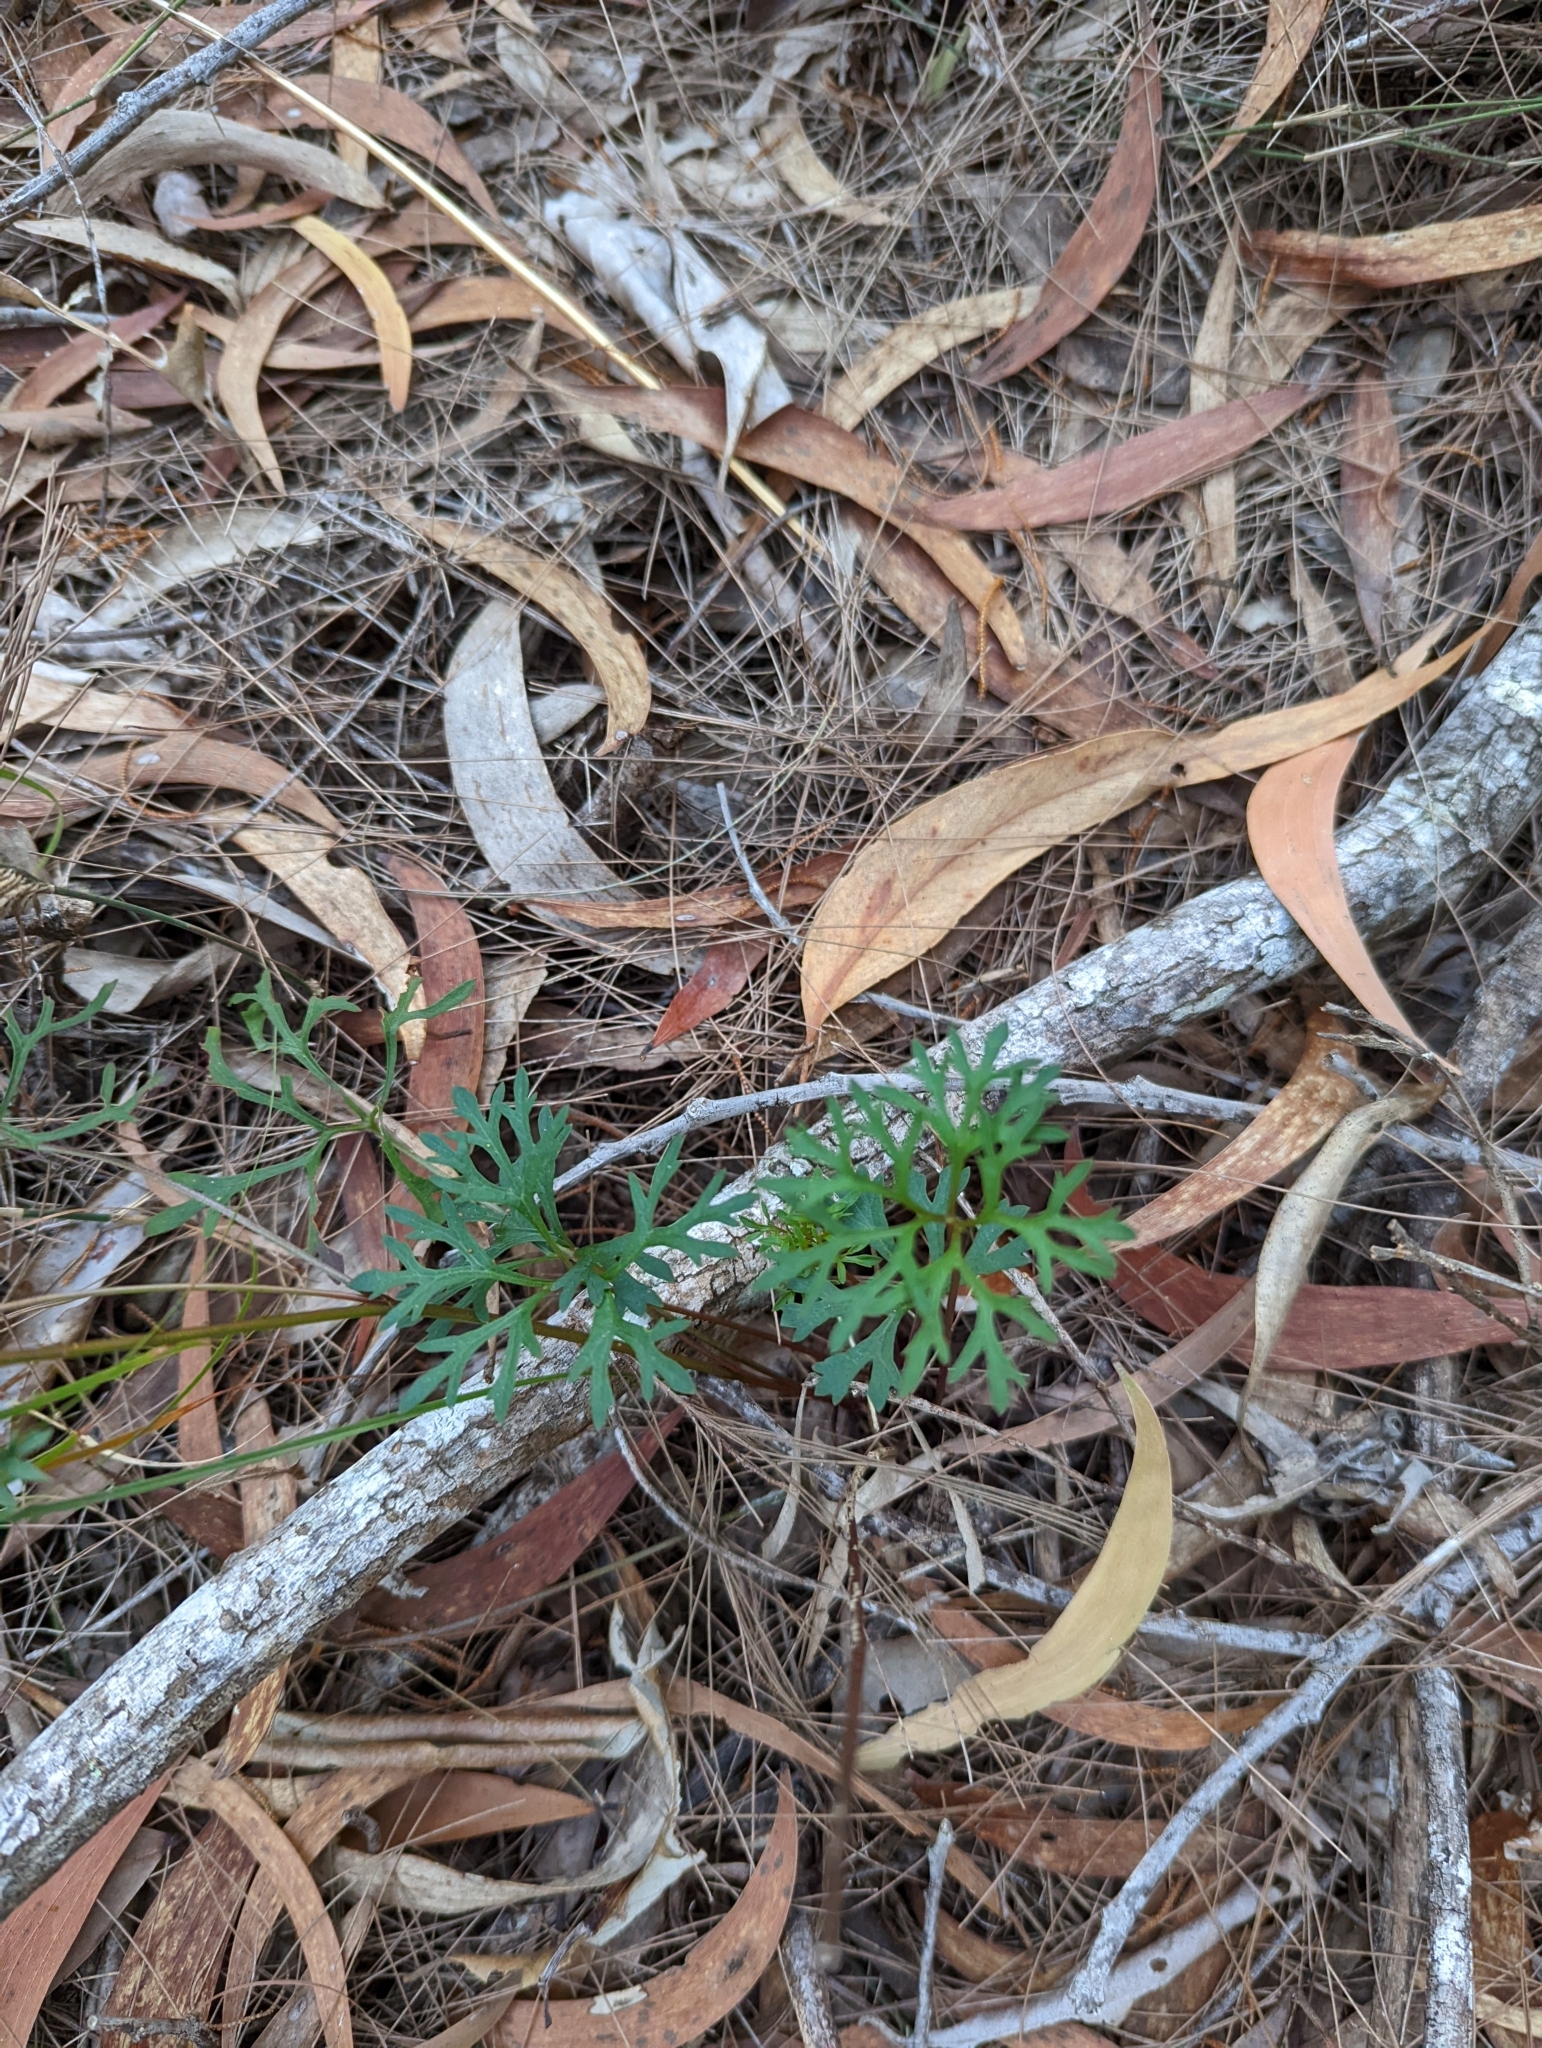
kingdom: Plantae
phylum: Tracheophyta
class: Magnoliopsida
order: Apiales
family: Araliaceae
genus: Trachymene
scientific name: Trachymene incisa
